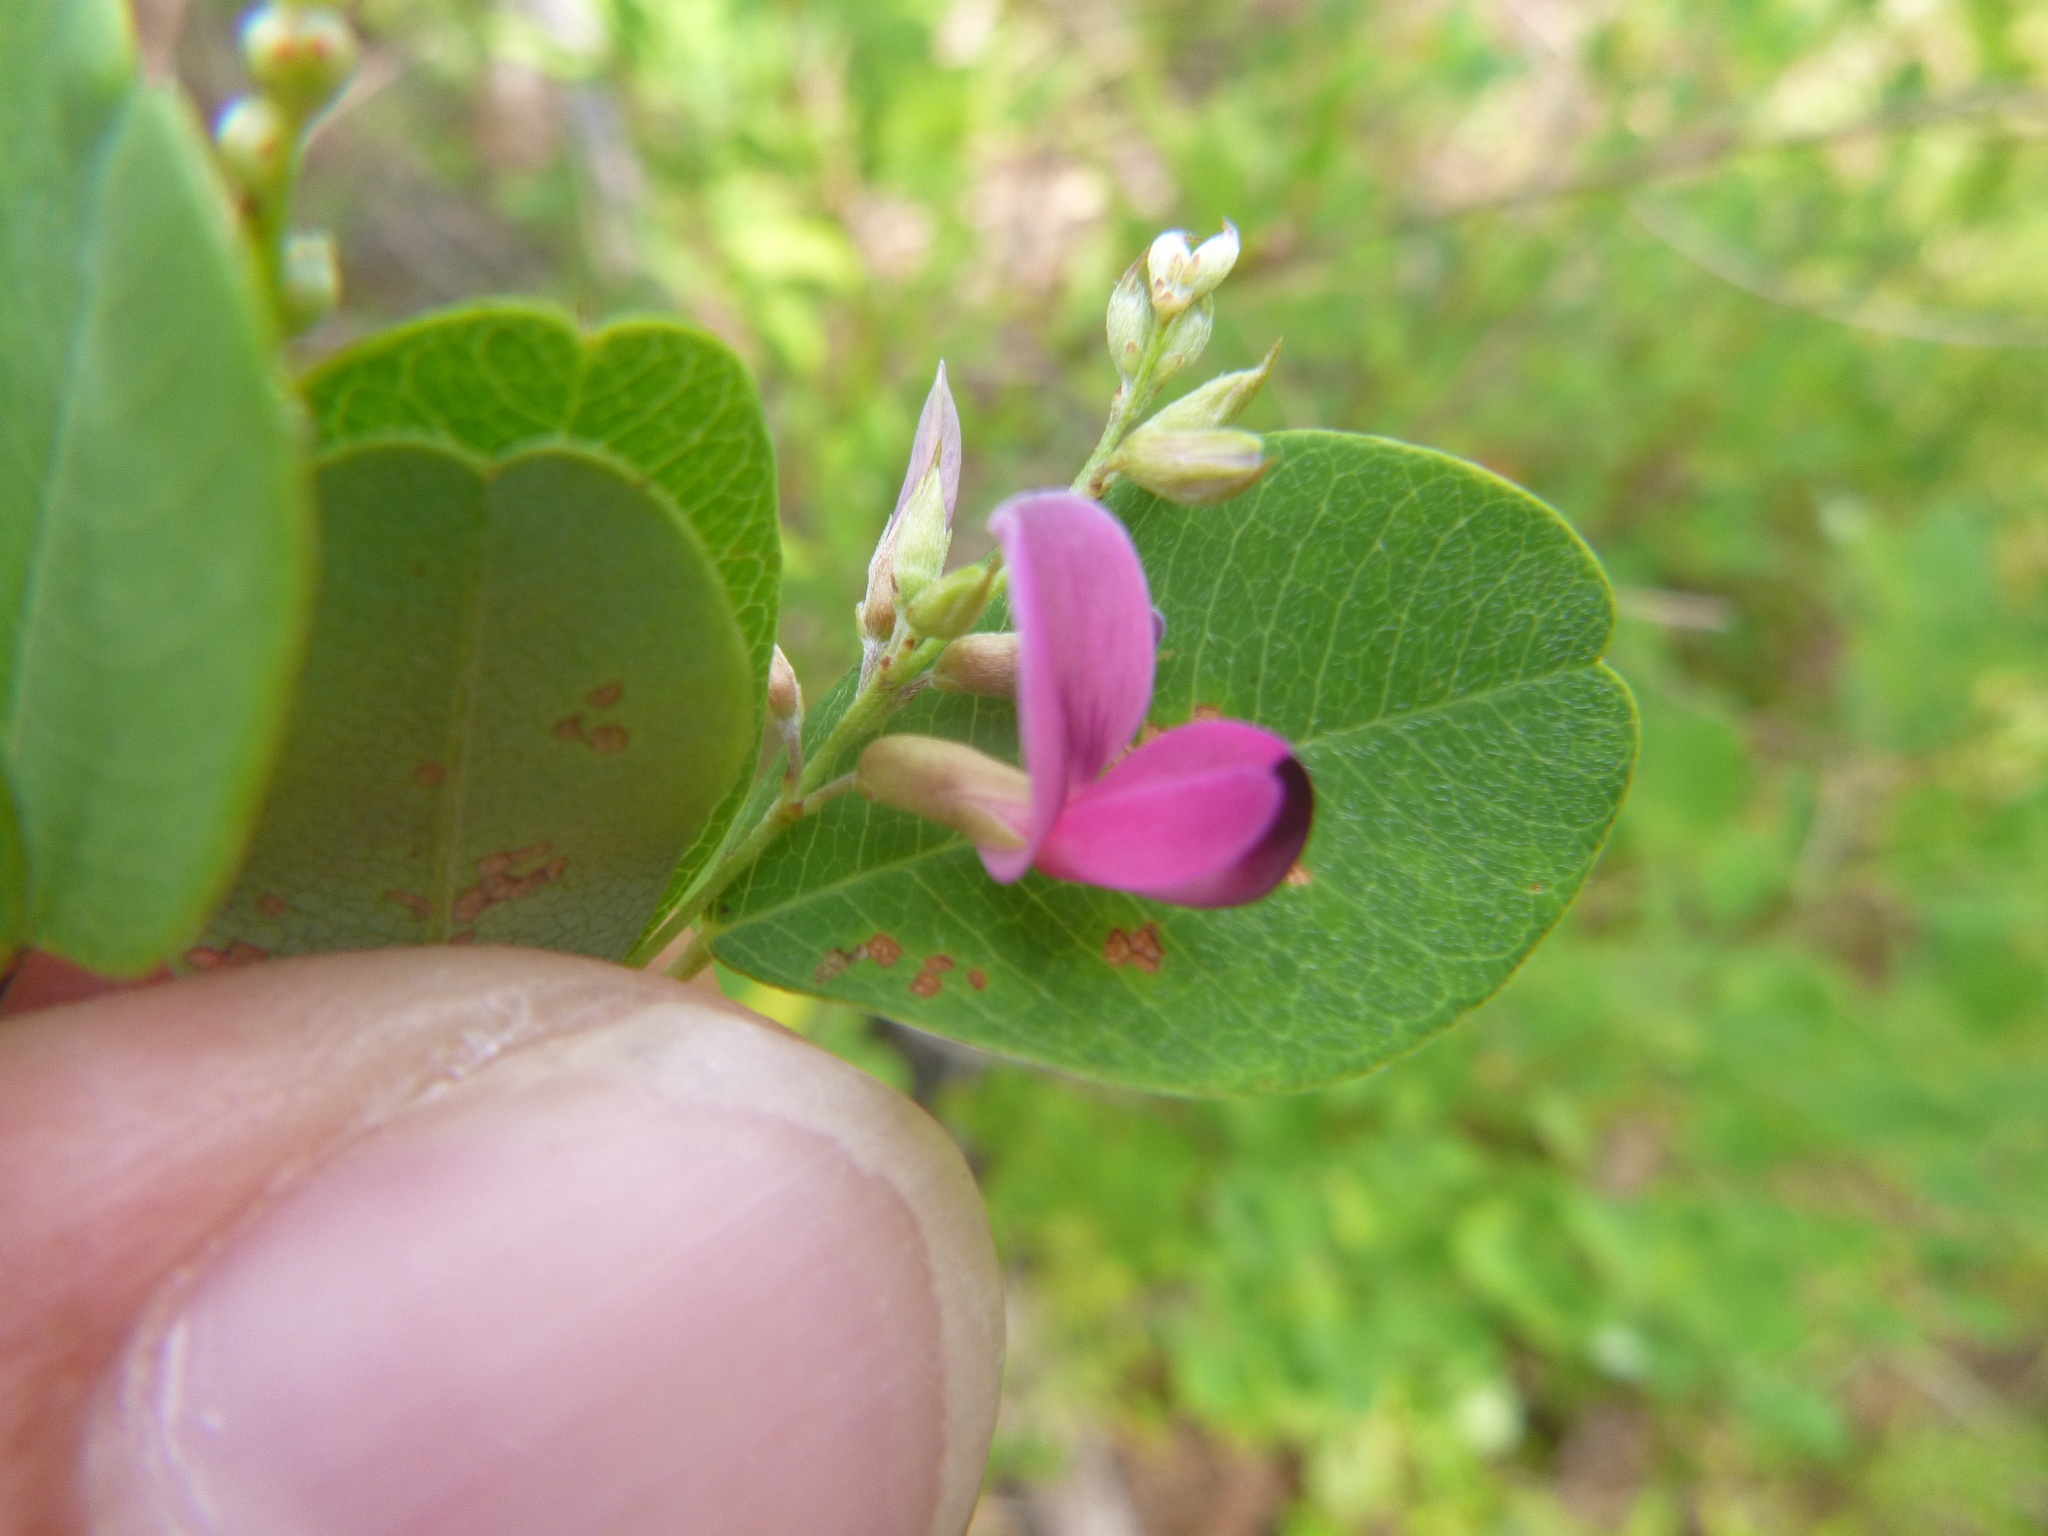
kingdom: Plantae
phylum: Tracheophyta
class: Magnoliopsida
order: Fabales
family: Fabaceae
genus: Lespedeza
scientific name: Lespedeza bicolor
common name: Shrub lespedeza
